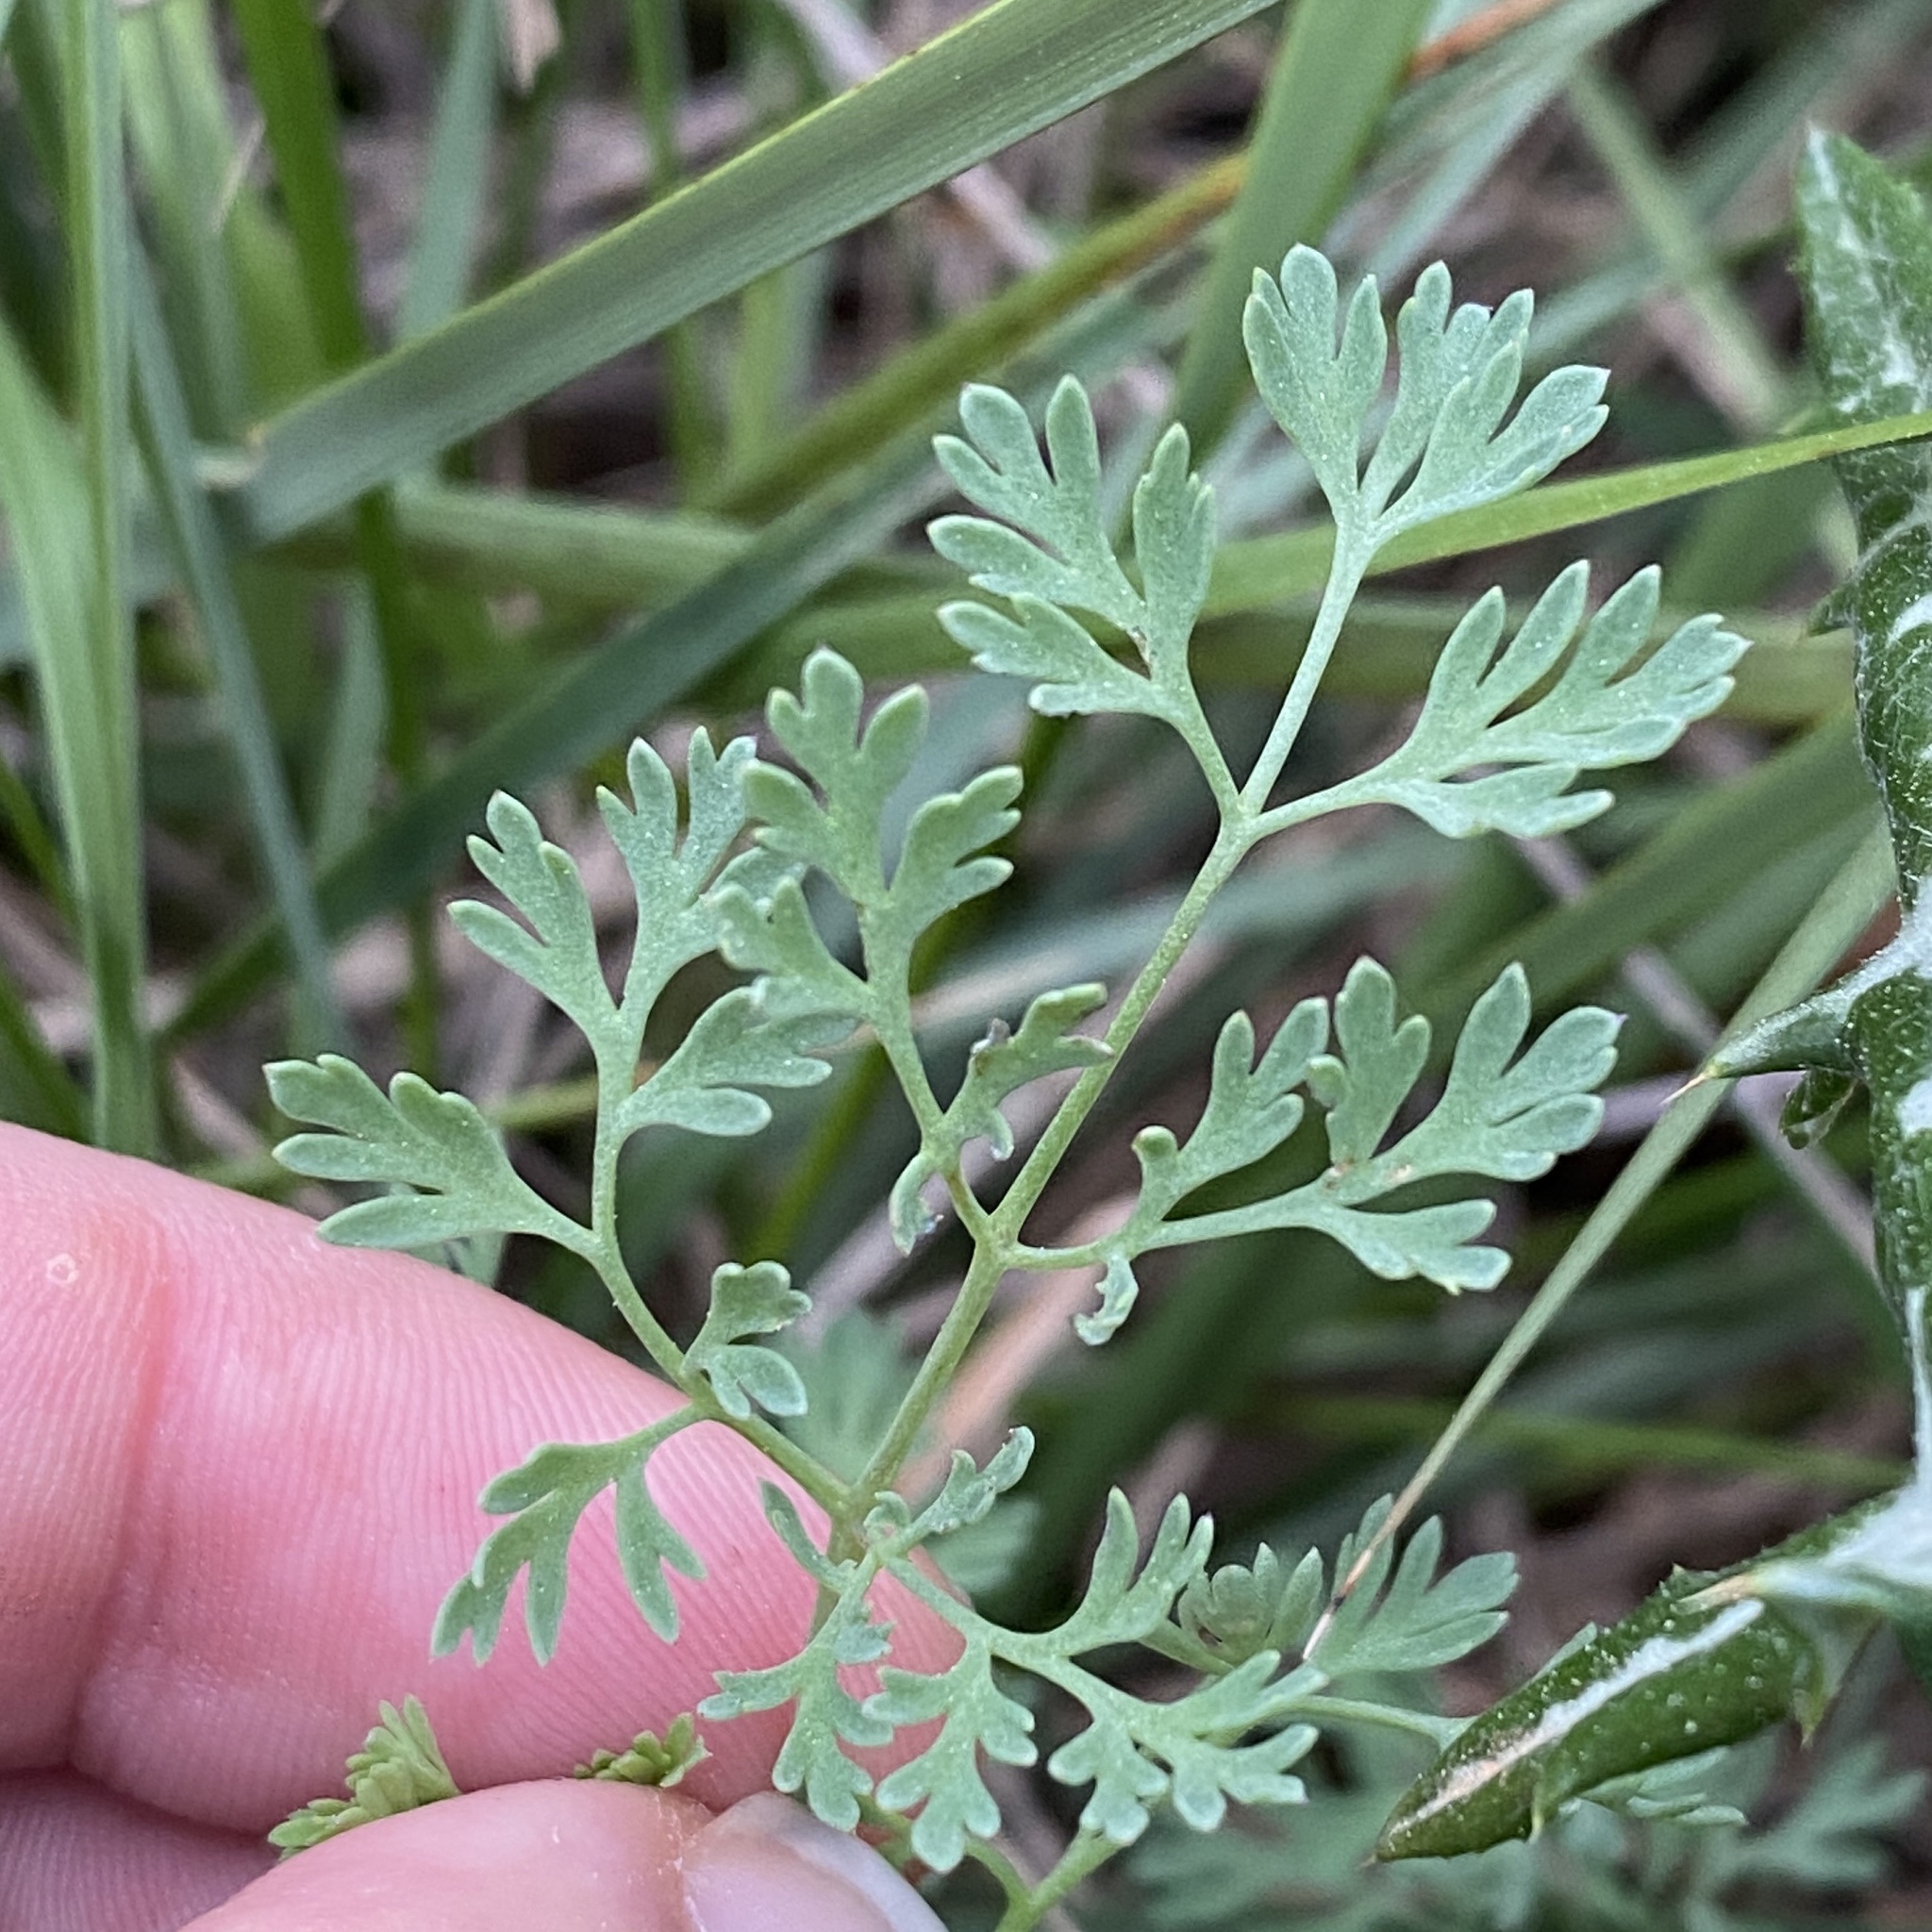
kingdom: Plantae
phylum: Tracheophyta
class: Magnoliopsida
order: Ranunculales
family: Papaveraceae
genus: Fumaria
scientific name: Fumaria officinalis
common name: Common fumitory
